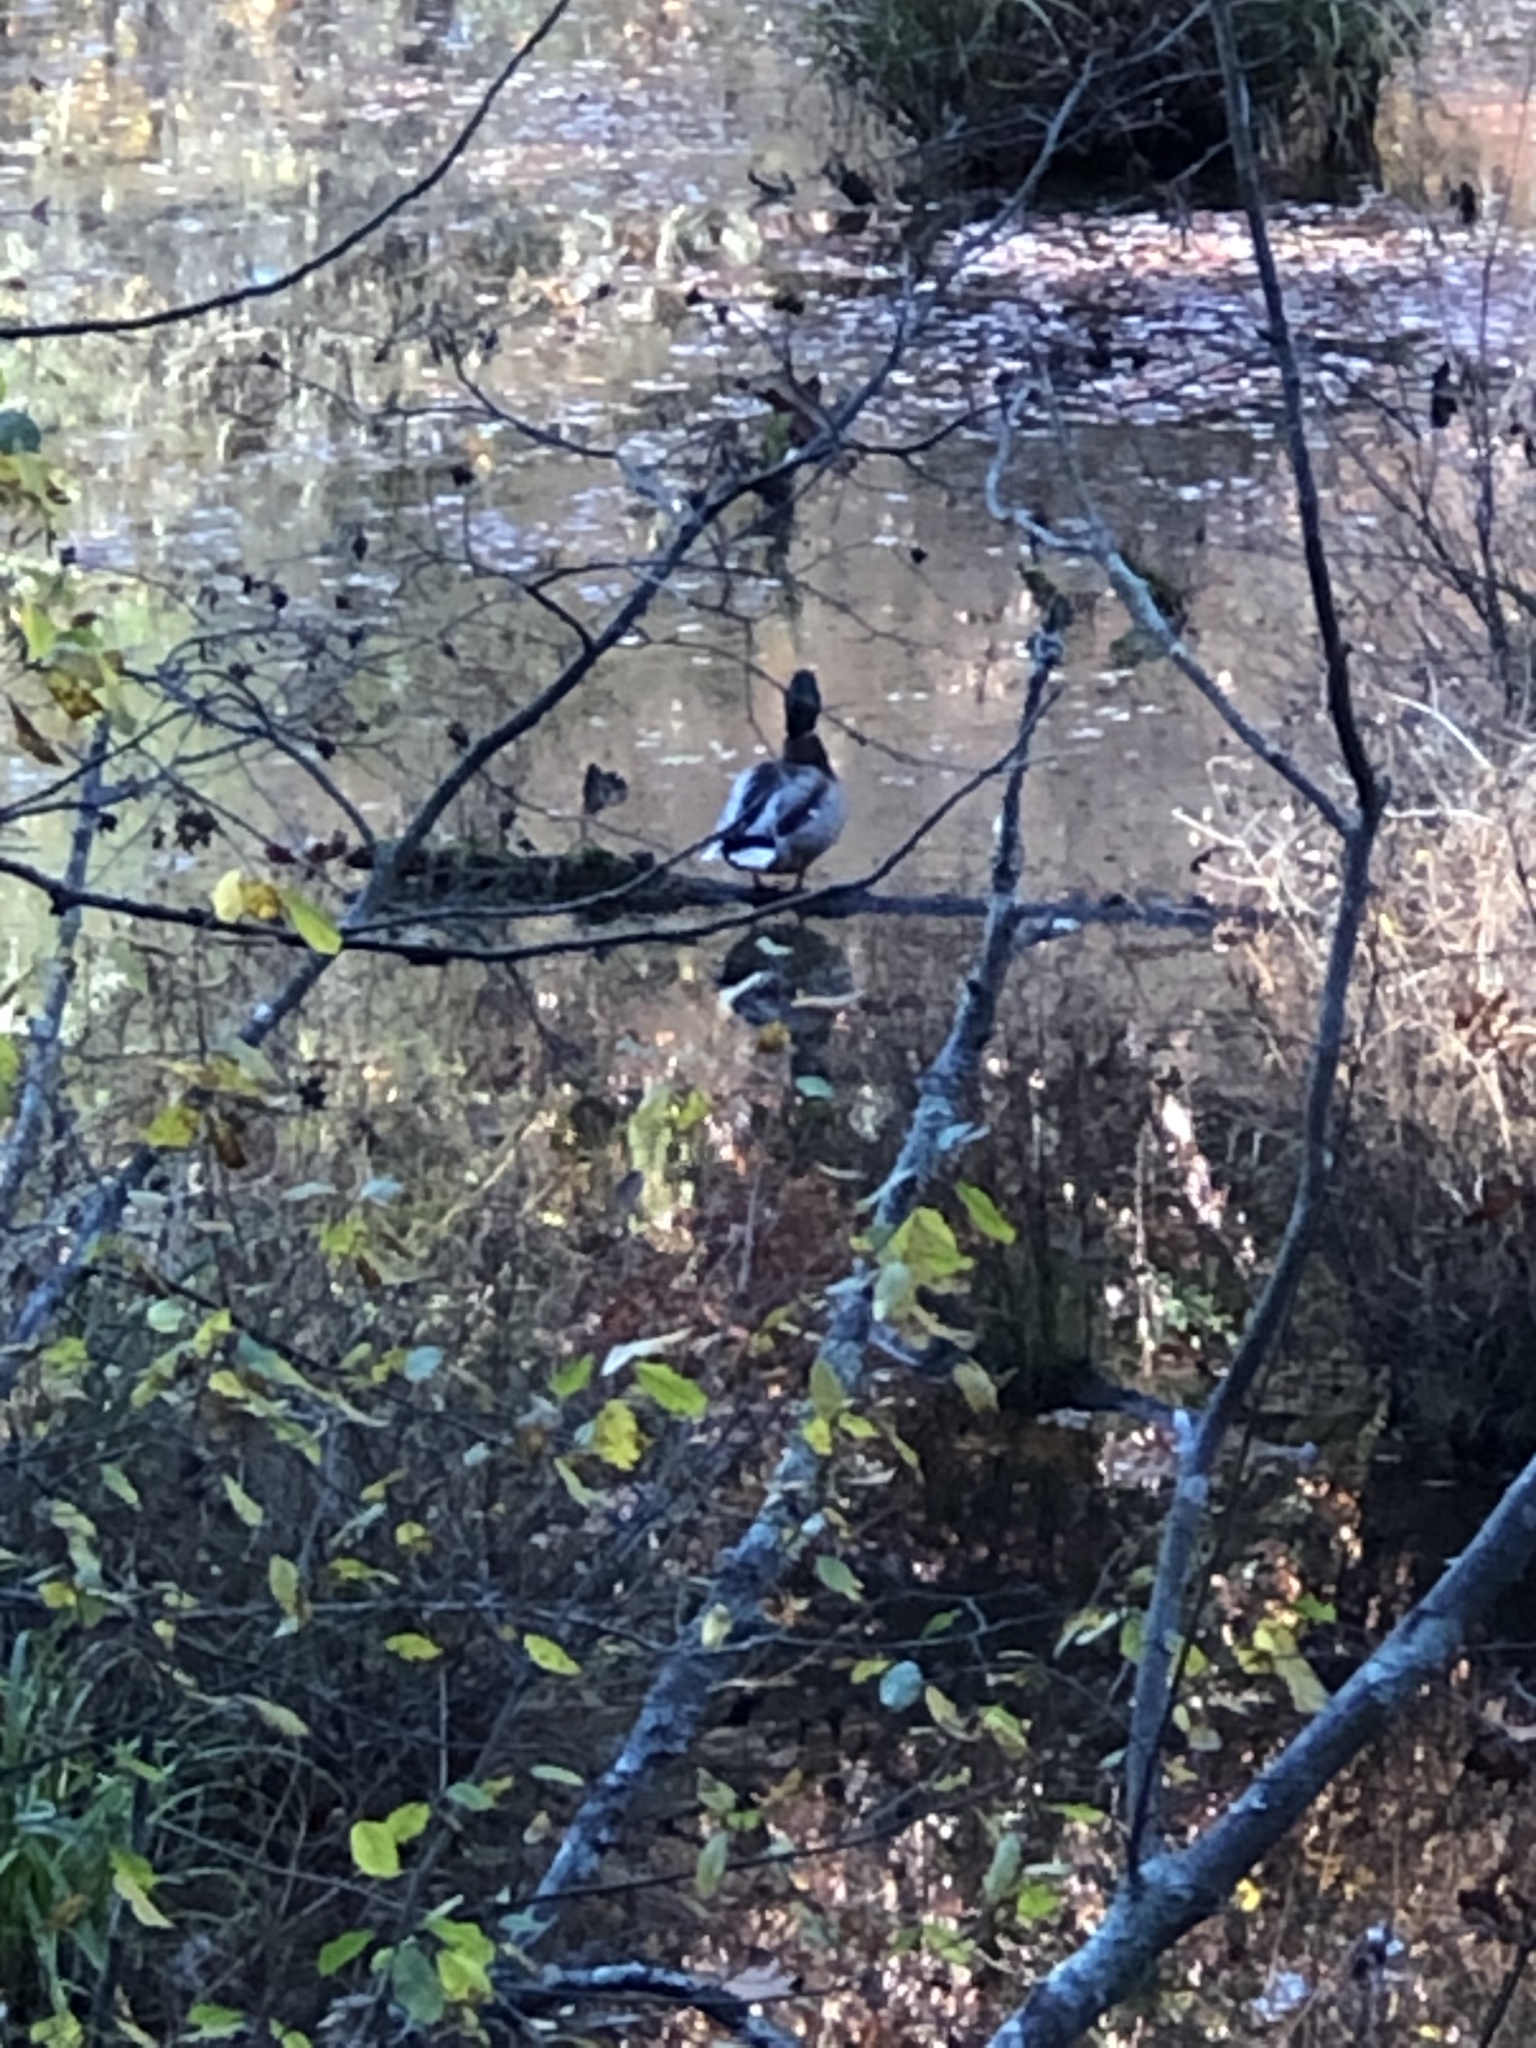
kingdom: Animalia
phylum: Chordata
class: Aves
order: Anseriformes
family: Anatidae
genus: Anas
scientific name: Anas platyrhynchos
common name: Mallard
